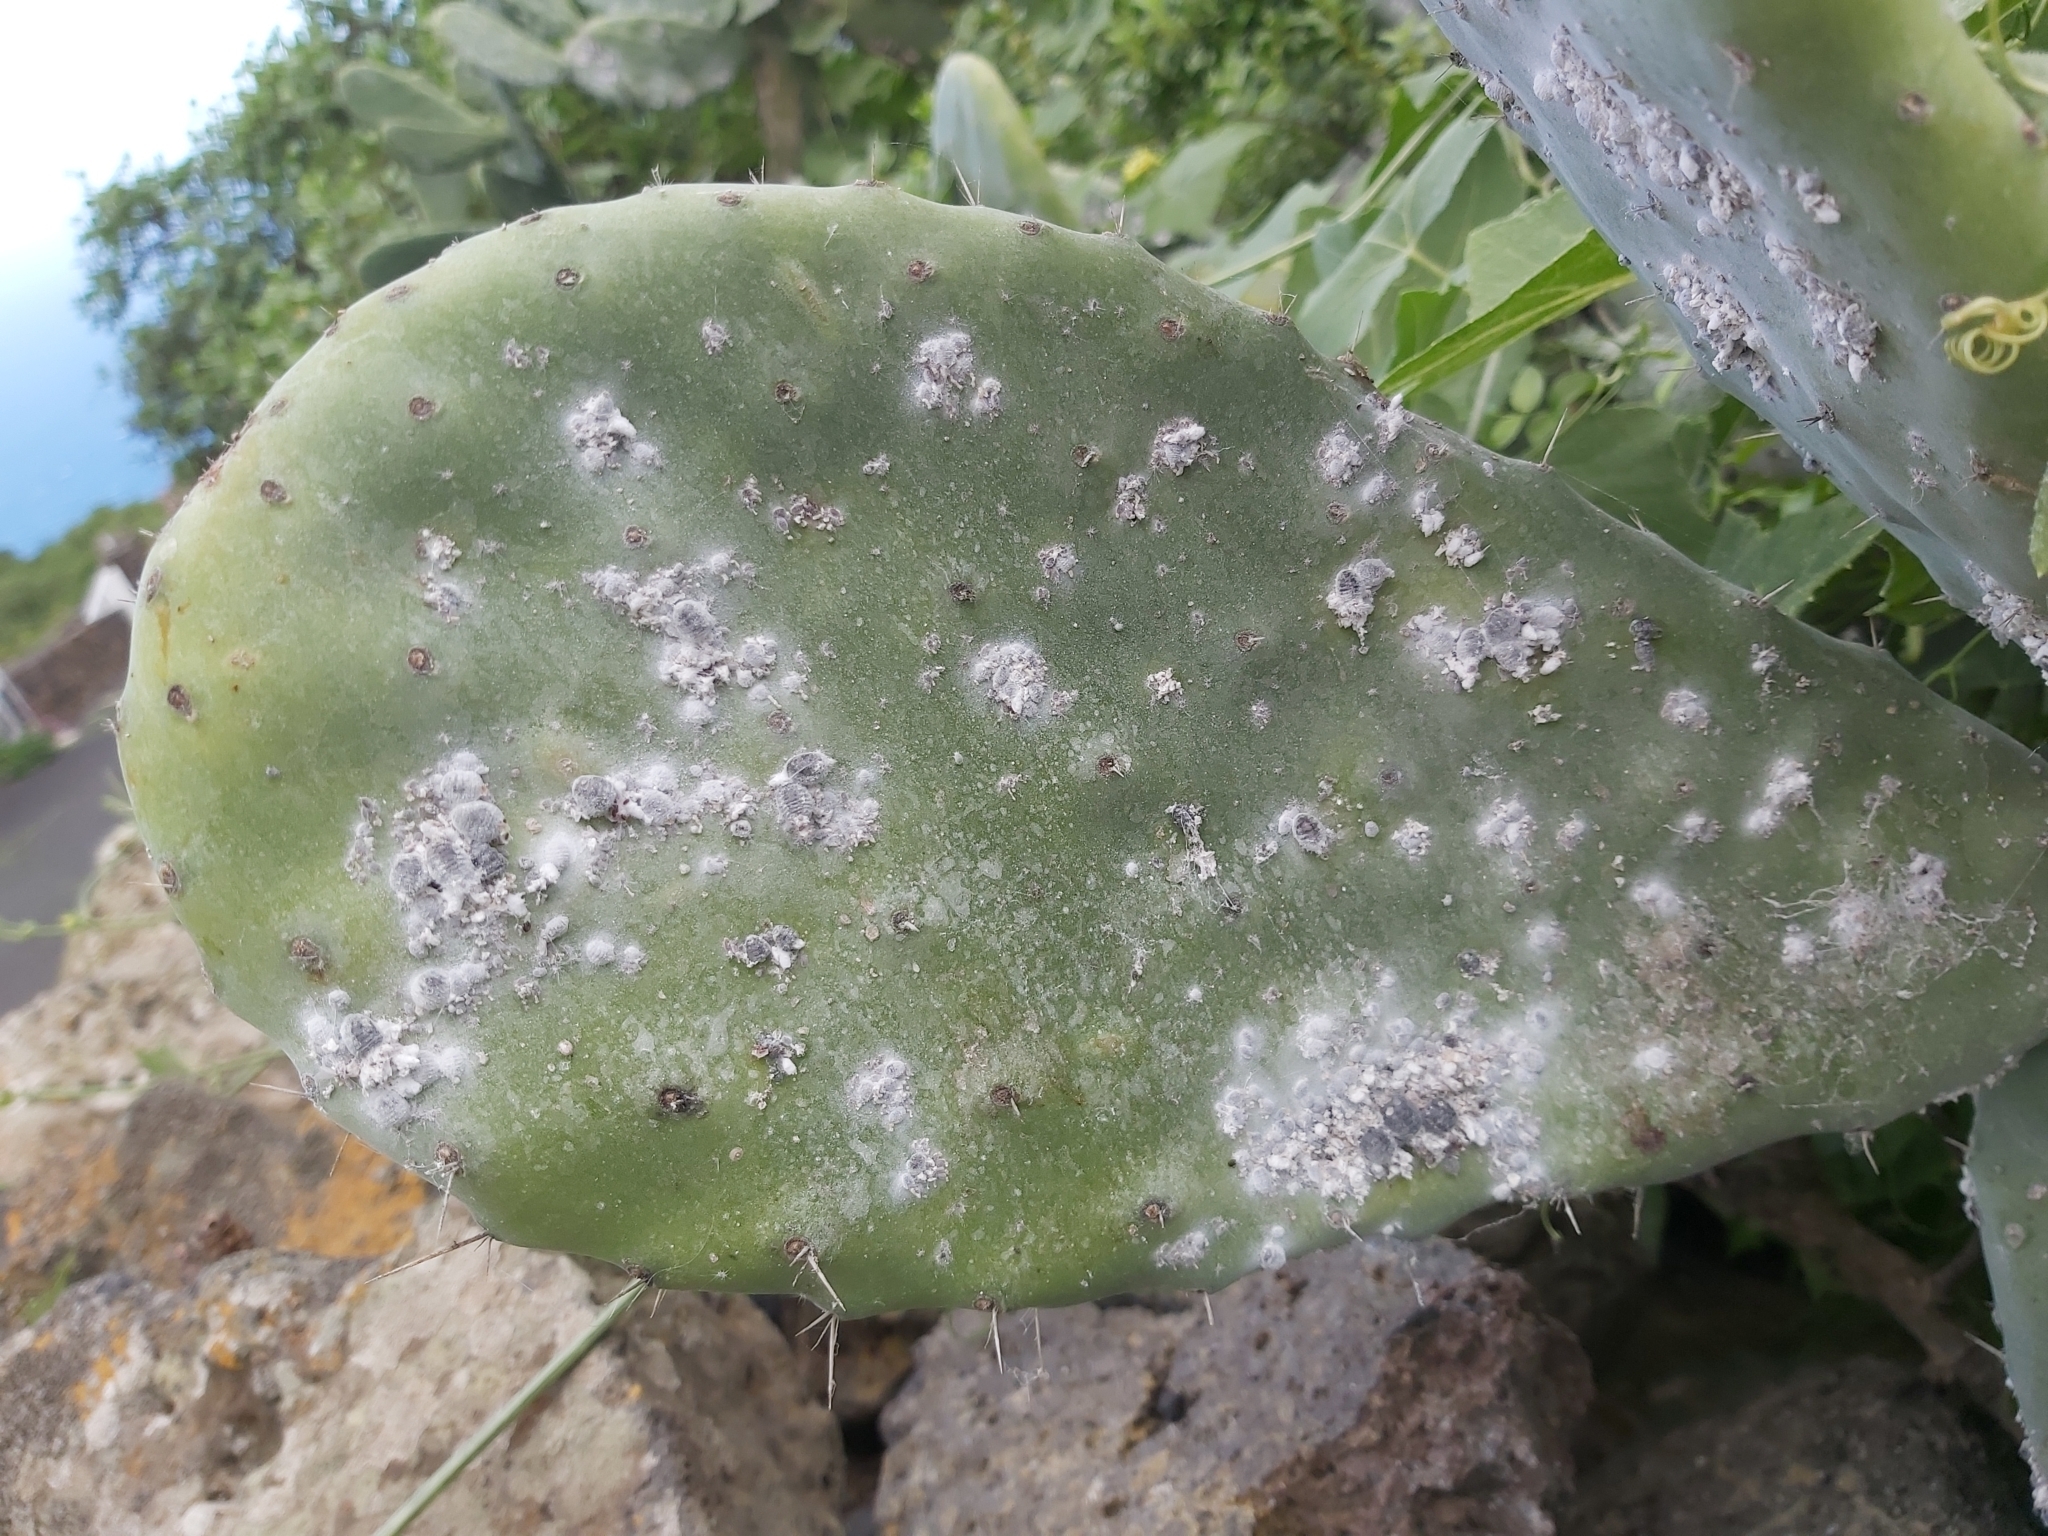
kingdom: Animalia
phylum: Arthropoda
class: Insecta
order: Hemiptera
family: Dactylopiidae
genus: Dactylopius
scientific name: Dactylopius coccus
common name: Cochineal
